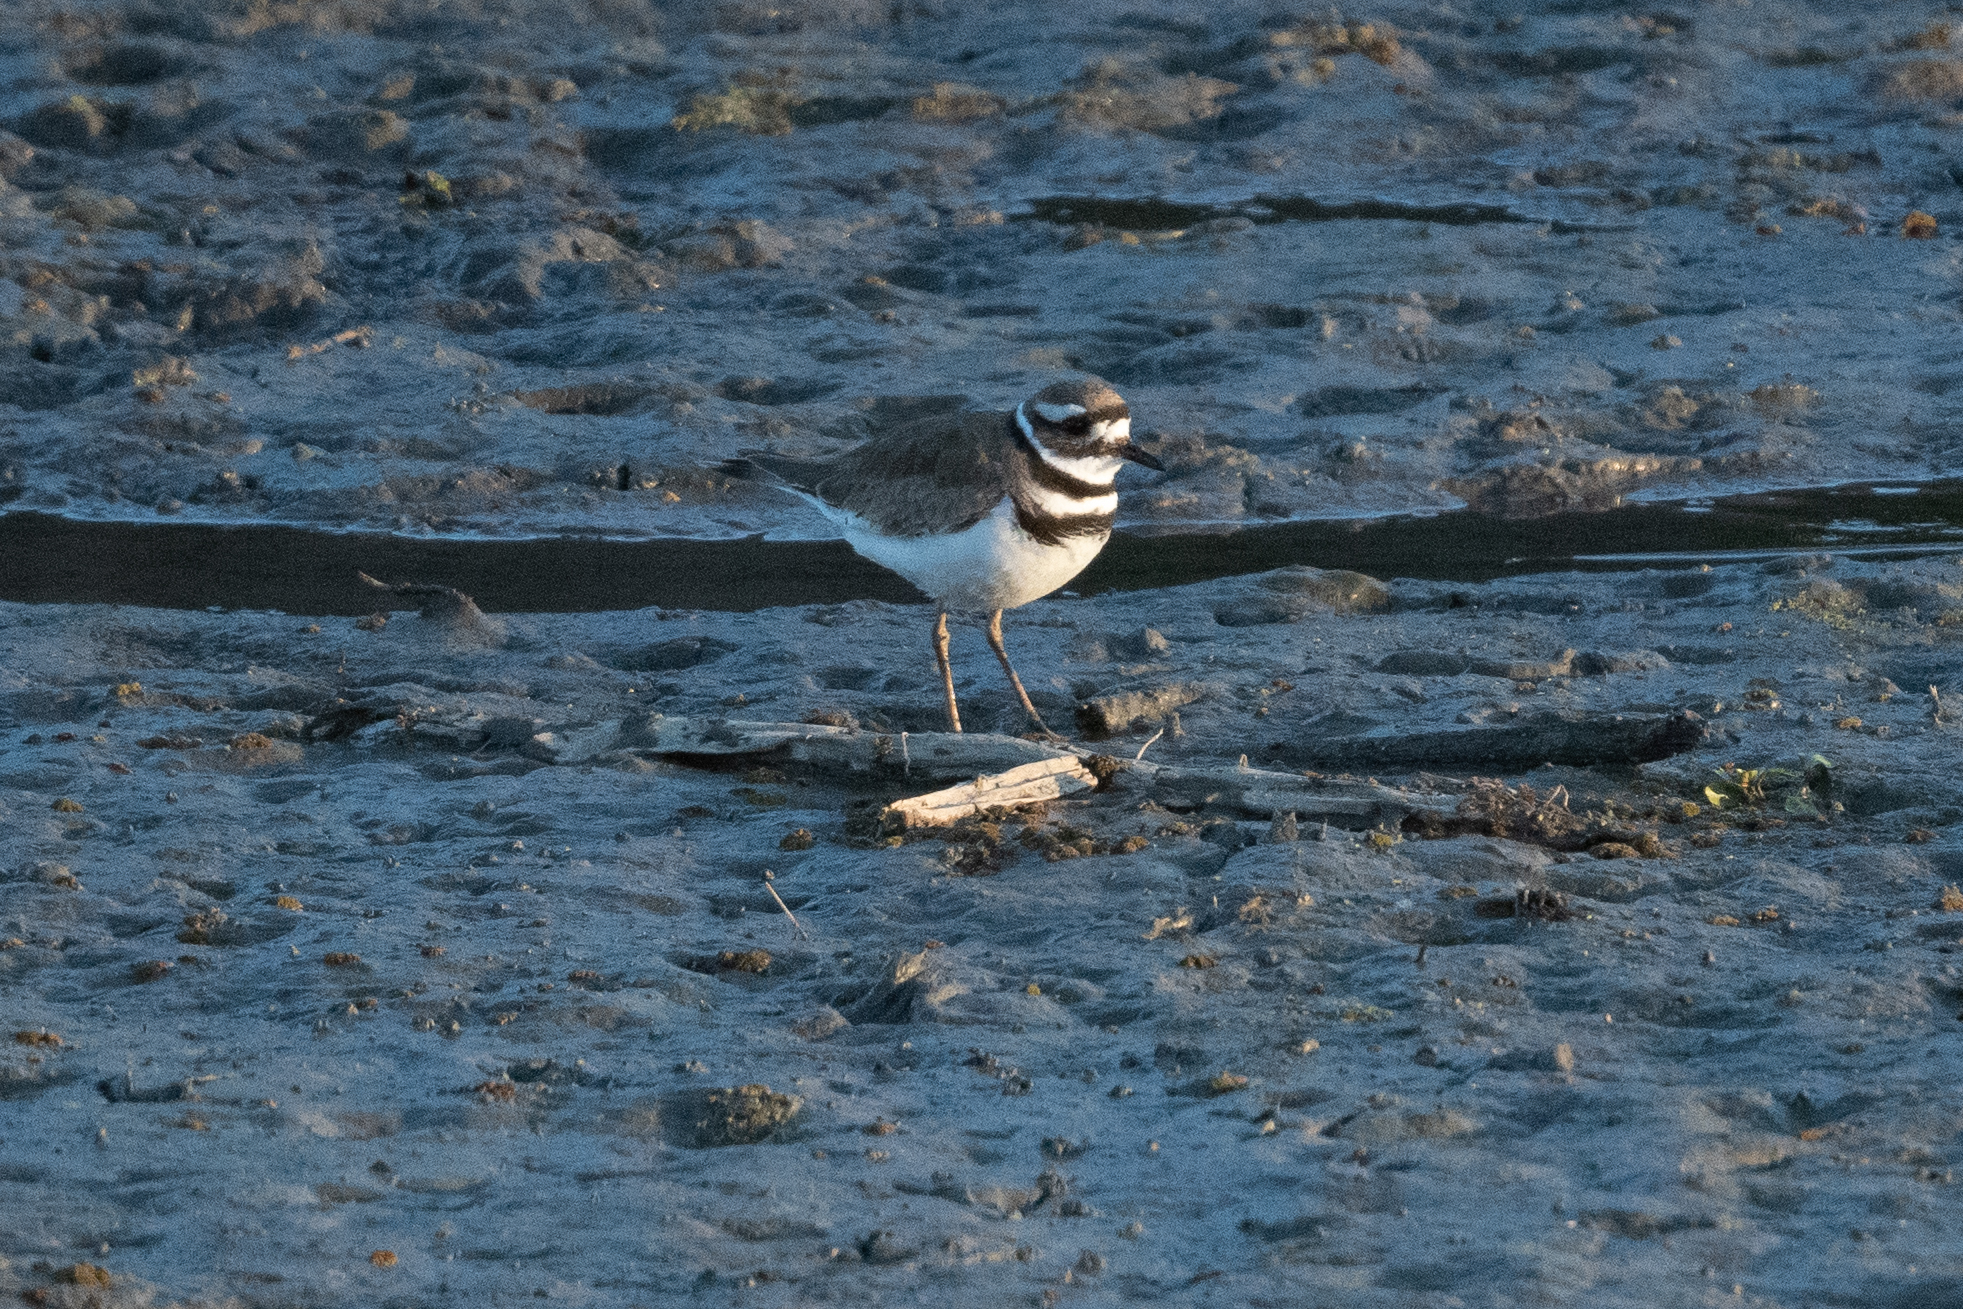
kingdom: Animalia
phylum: Chordata
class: Aves
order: Charadriiformes
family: Charadriidae
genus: Charadrius
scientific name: Charadrius vociferus
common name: Killdeer
